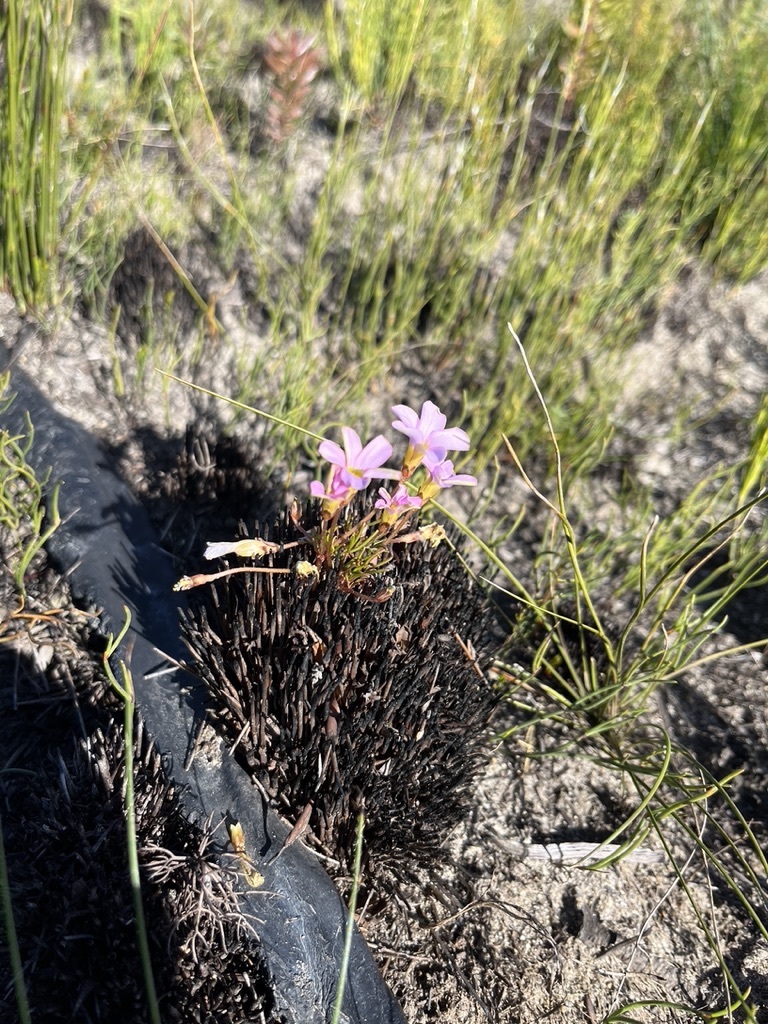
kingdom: Plantae
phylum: Tracheophyta
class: Magnoliopsida
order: Oxalidales
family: Oxalidaceae
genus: Oxalis
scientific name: Oxalis polyphylla
